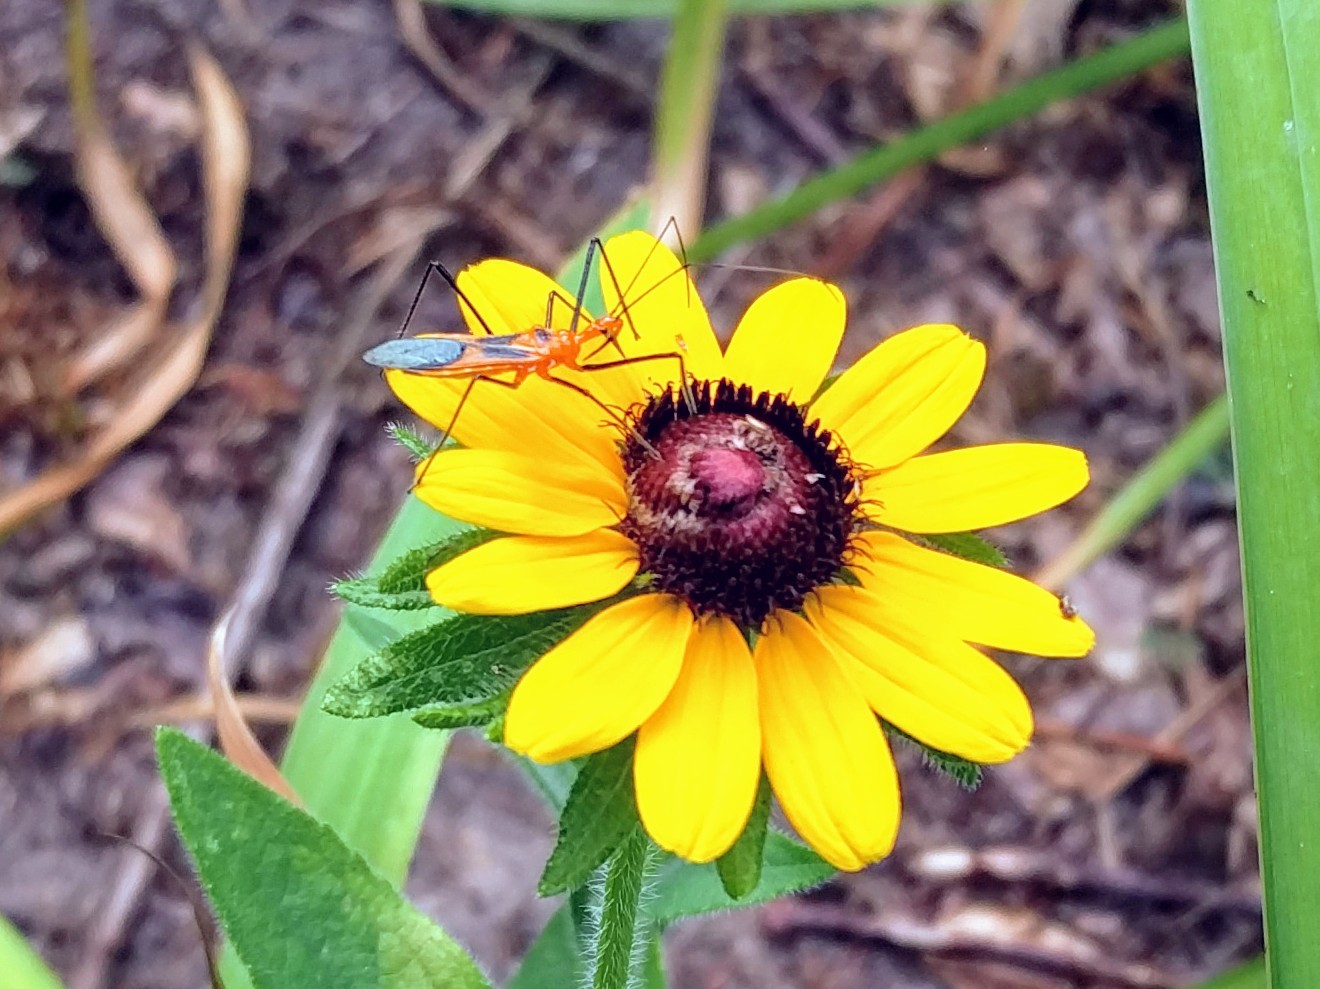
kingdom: Animalia
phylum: Arthropoda
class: Insecta
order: Hemiptera
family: Reduviidae
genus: Zelus
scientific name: Zelus longipes
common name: Milkweed assassin bug
